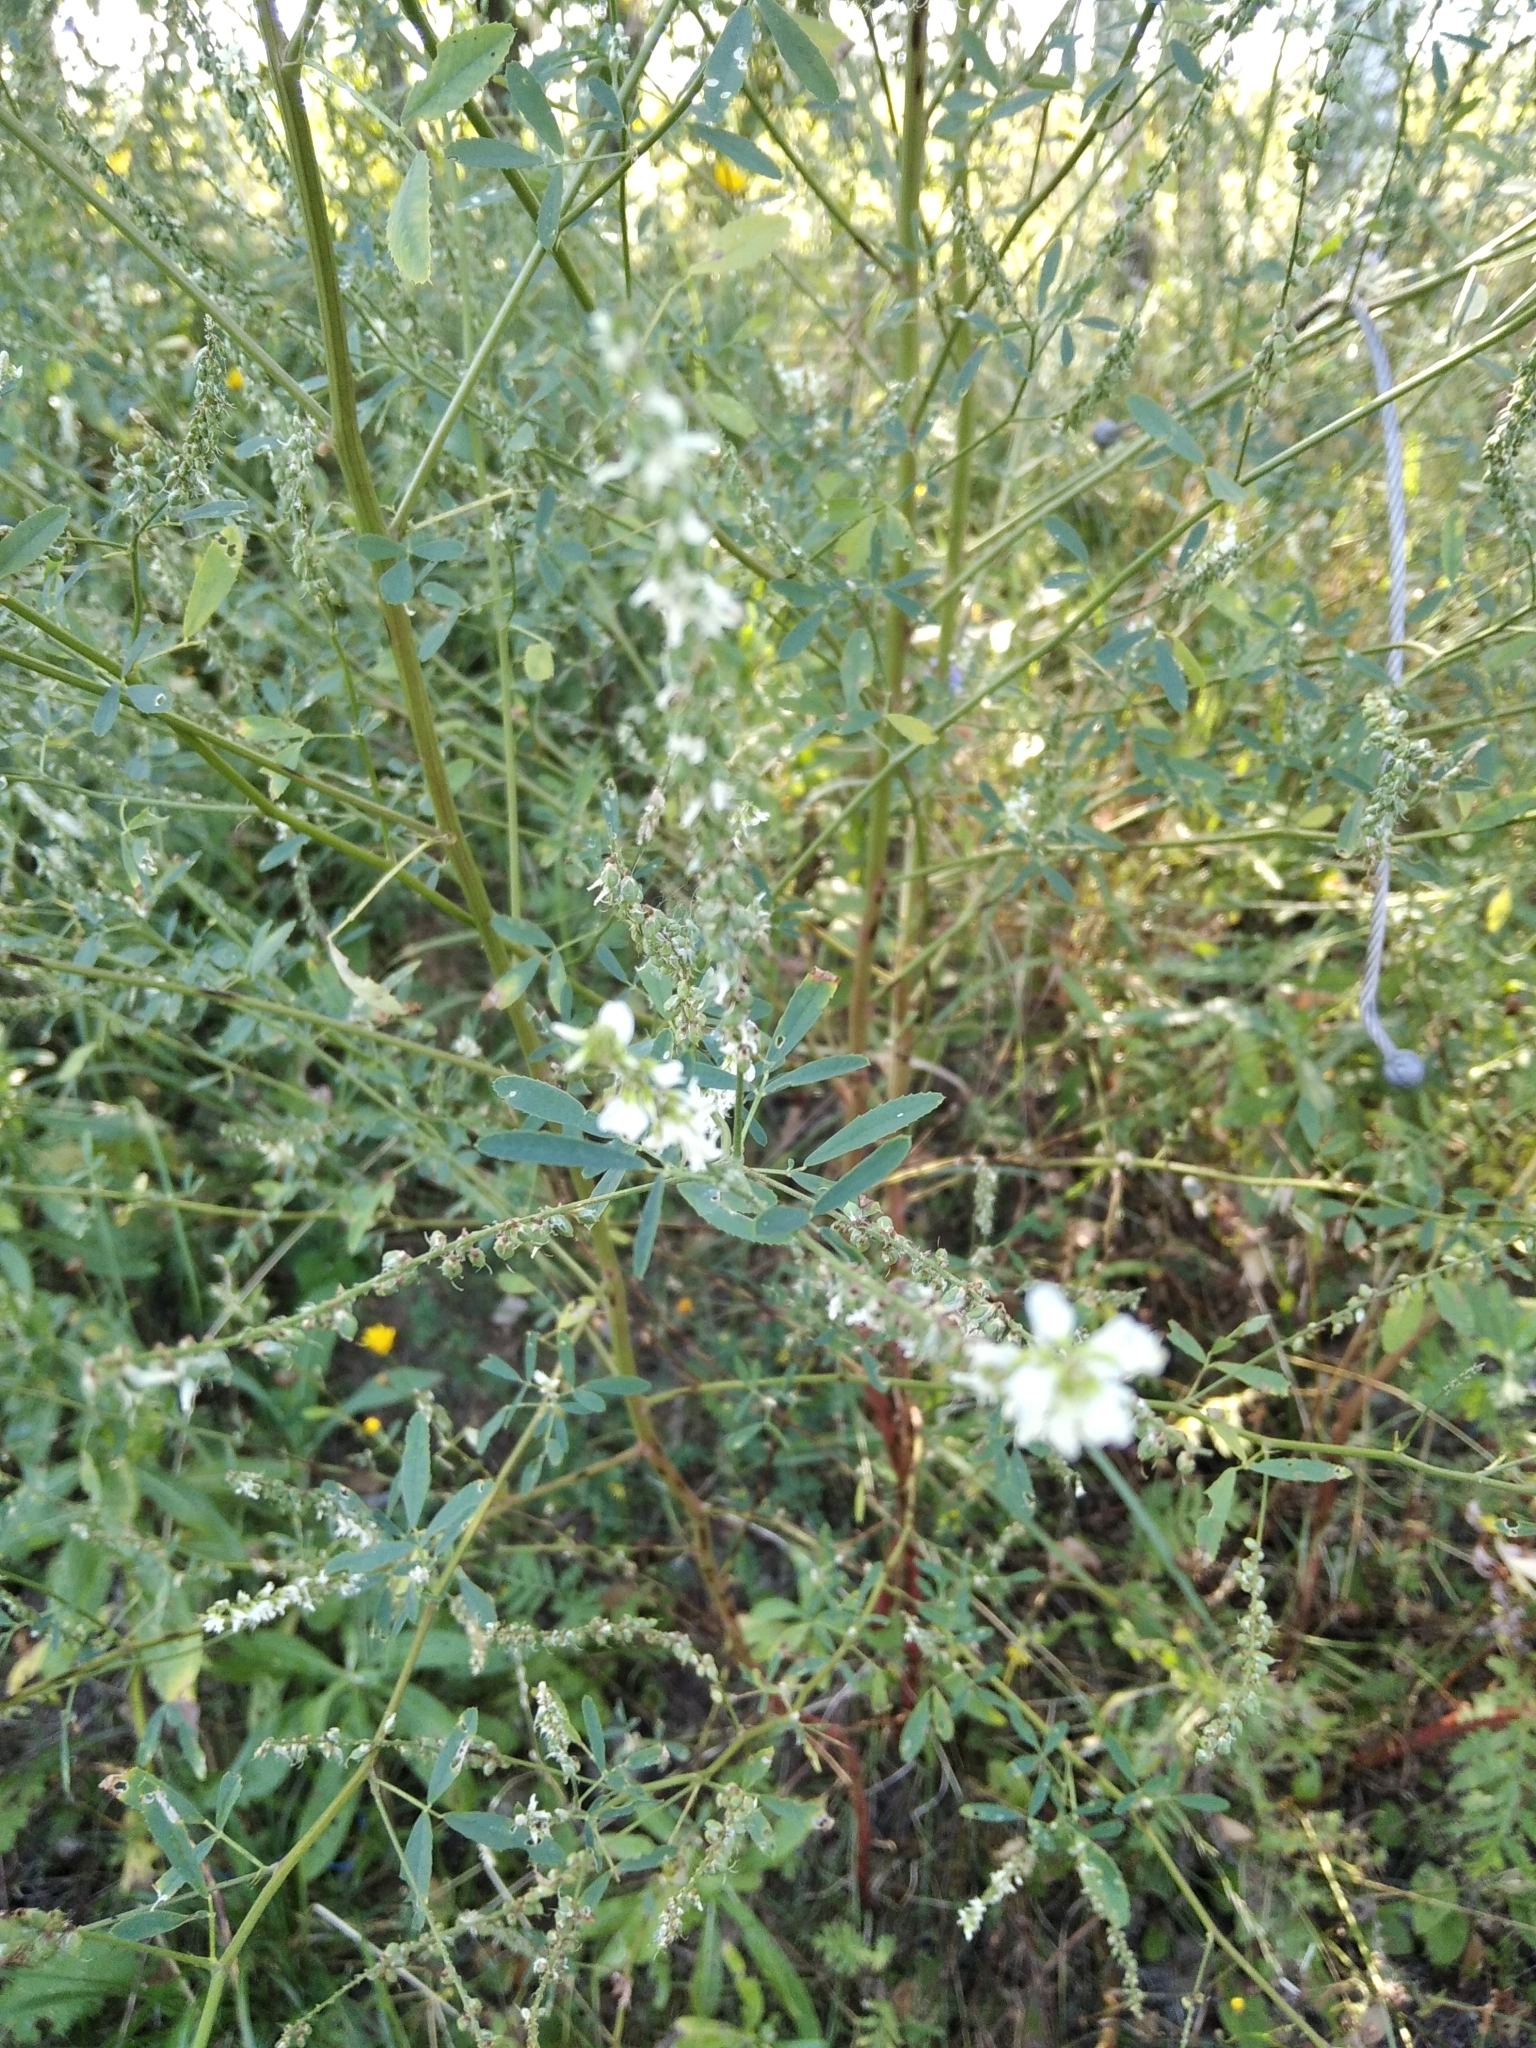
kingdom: Plantae
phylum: Tracheophyta
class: Magnoliopsida
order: Fabales
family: Fabaceae
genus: Melilotus
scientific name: Melilotus albus
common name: White melilot
